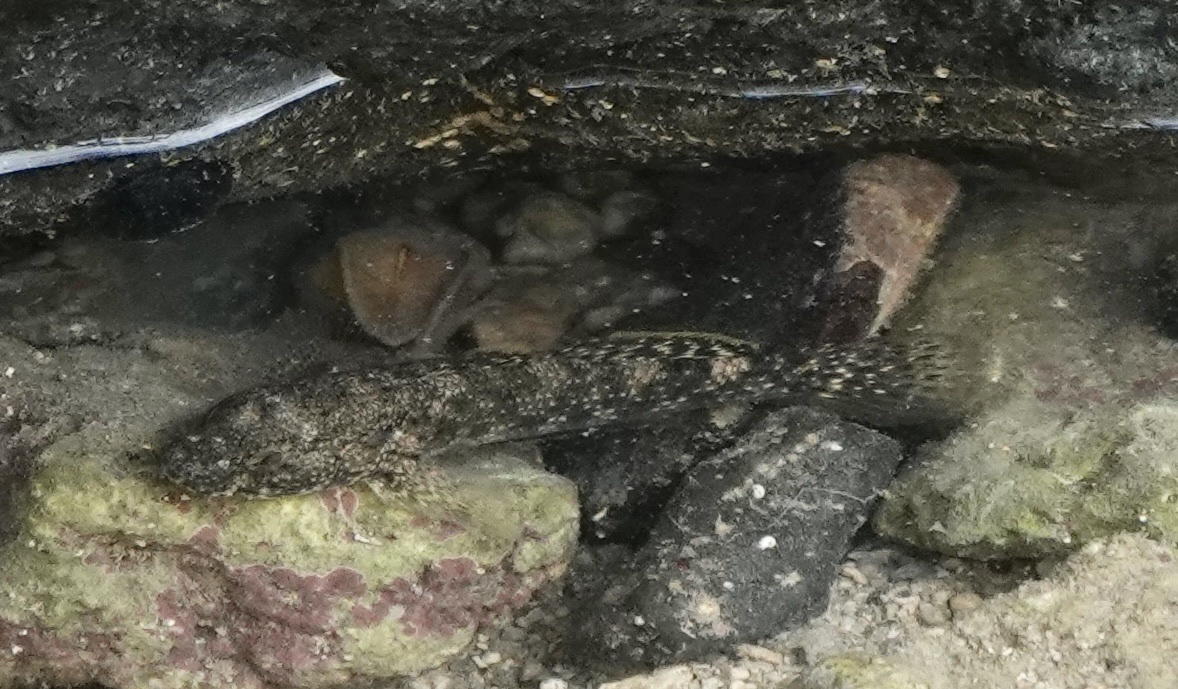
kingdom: Animalia
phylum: Chordata
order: Perciformes
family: Gobiidae
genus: Bathygobius
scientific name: Bathygobius coalitus
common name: Whitespotted goby
